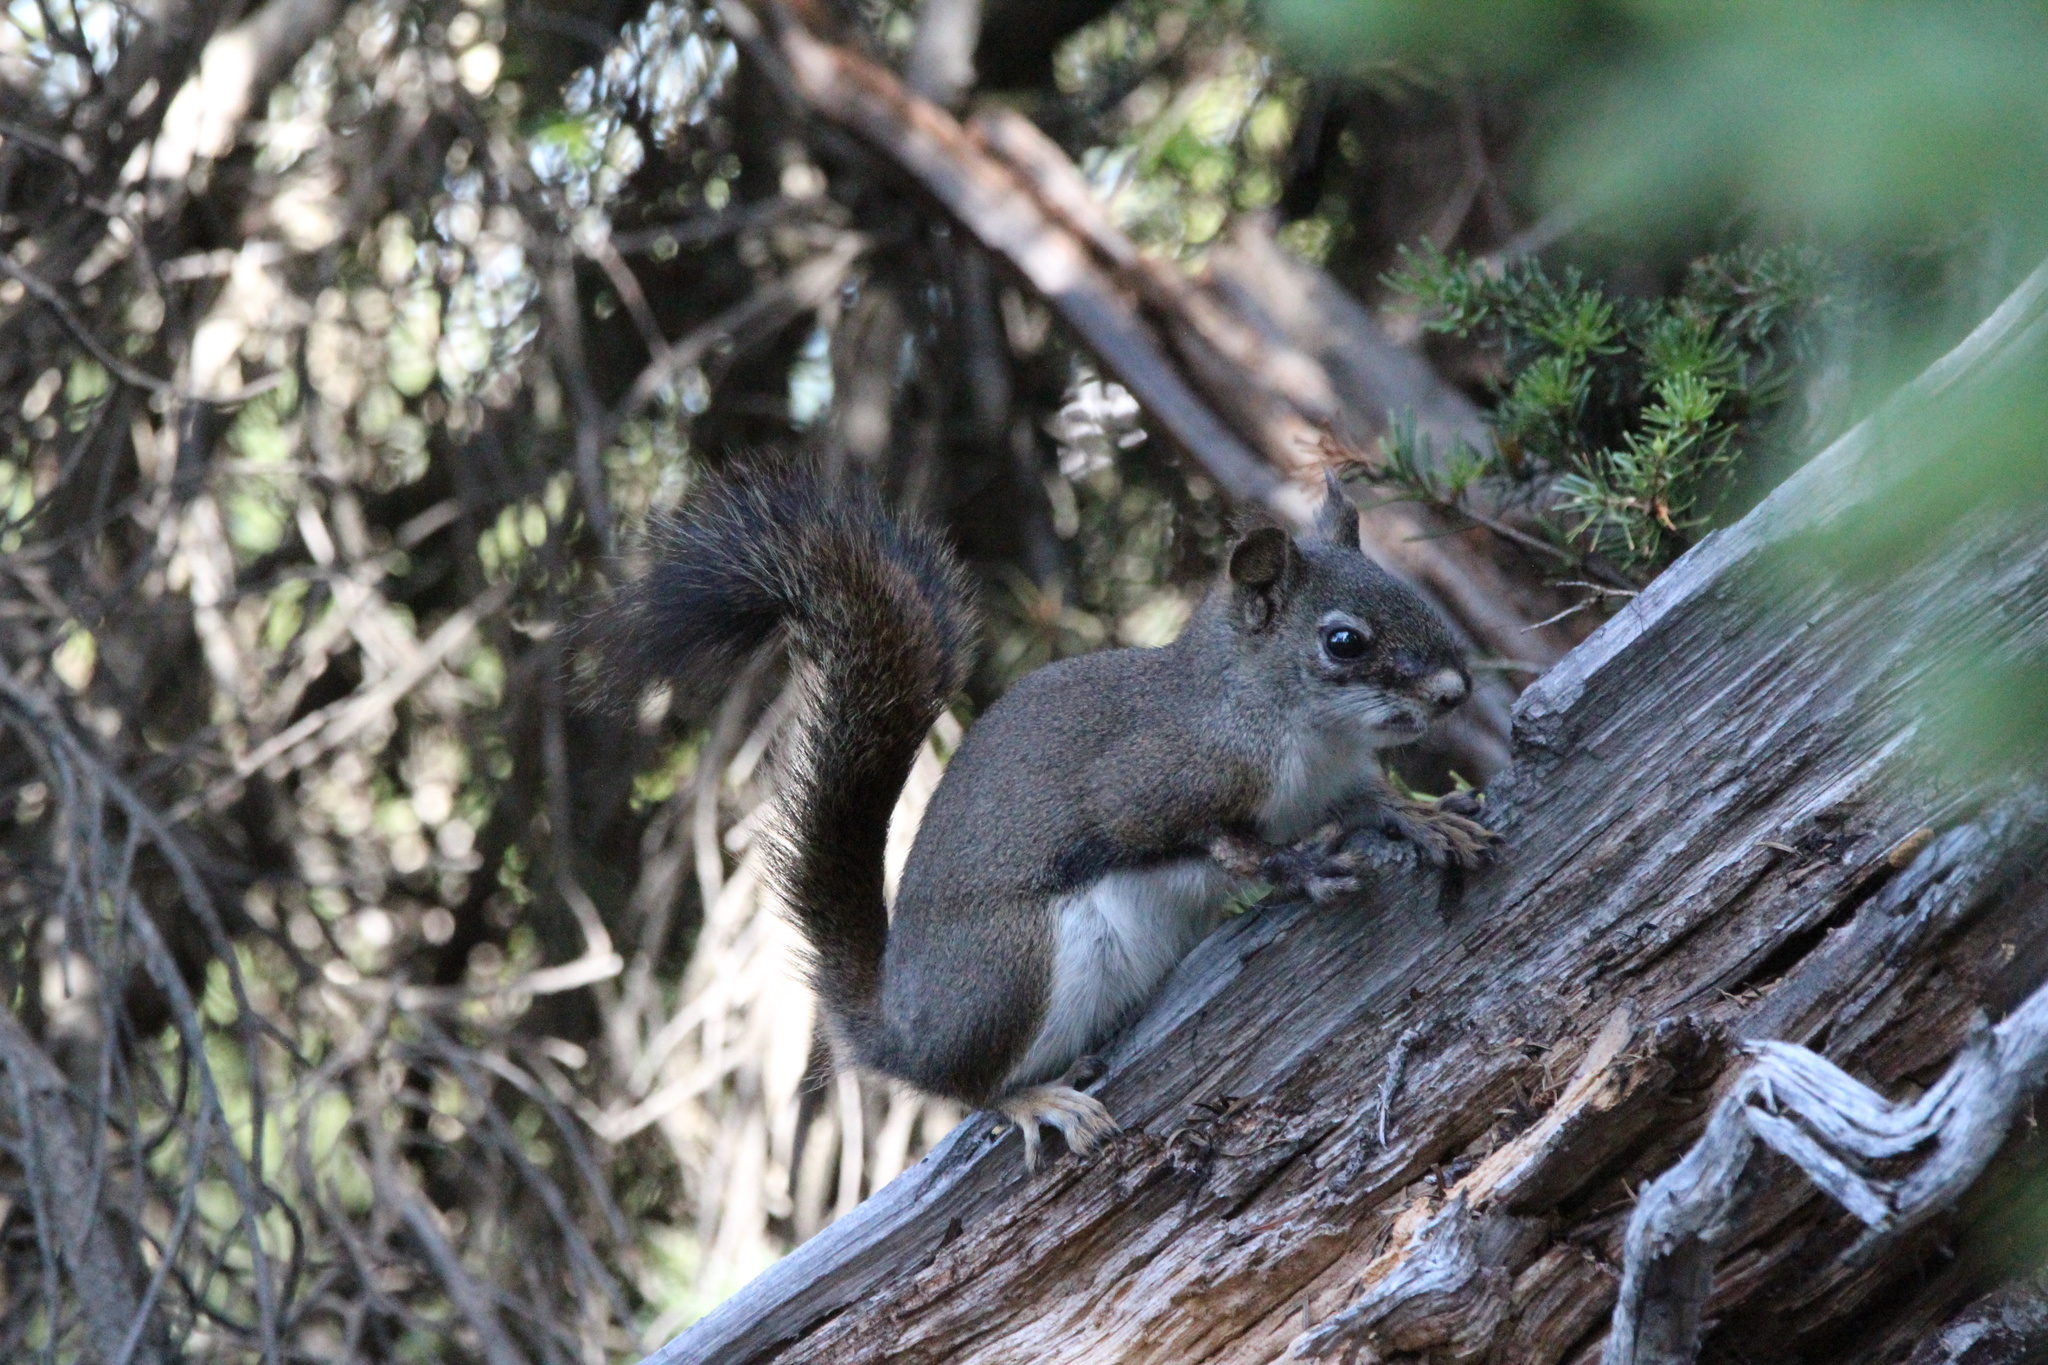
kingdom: Animalia
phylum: Chordata
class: Mammalia
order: Rodentia
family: Sciuridae
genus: Tamiasciurus
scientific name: Tamiasciurus hudsonicus
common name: Red squirrel
